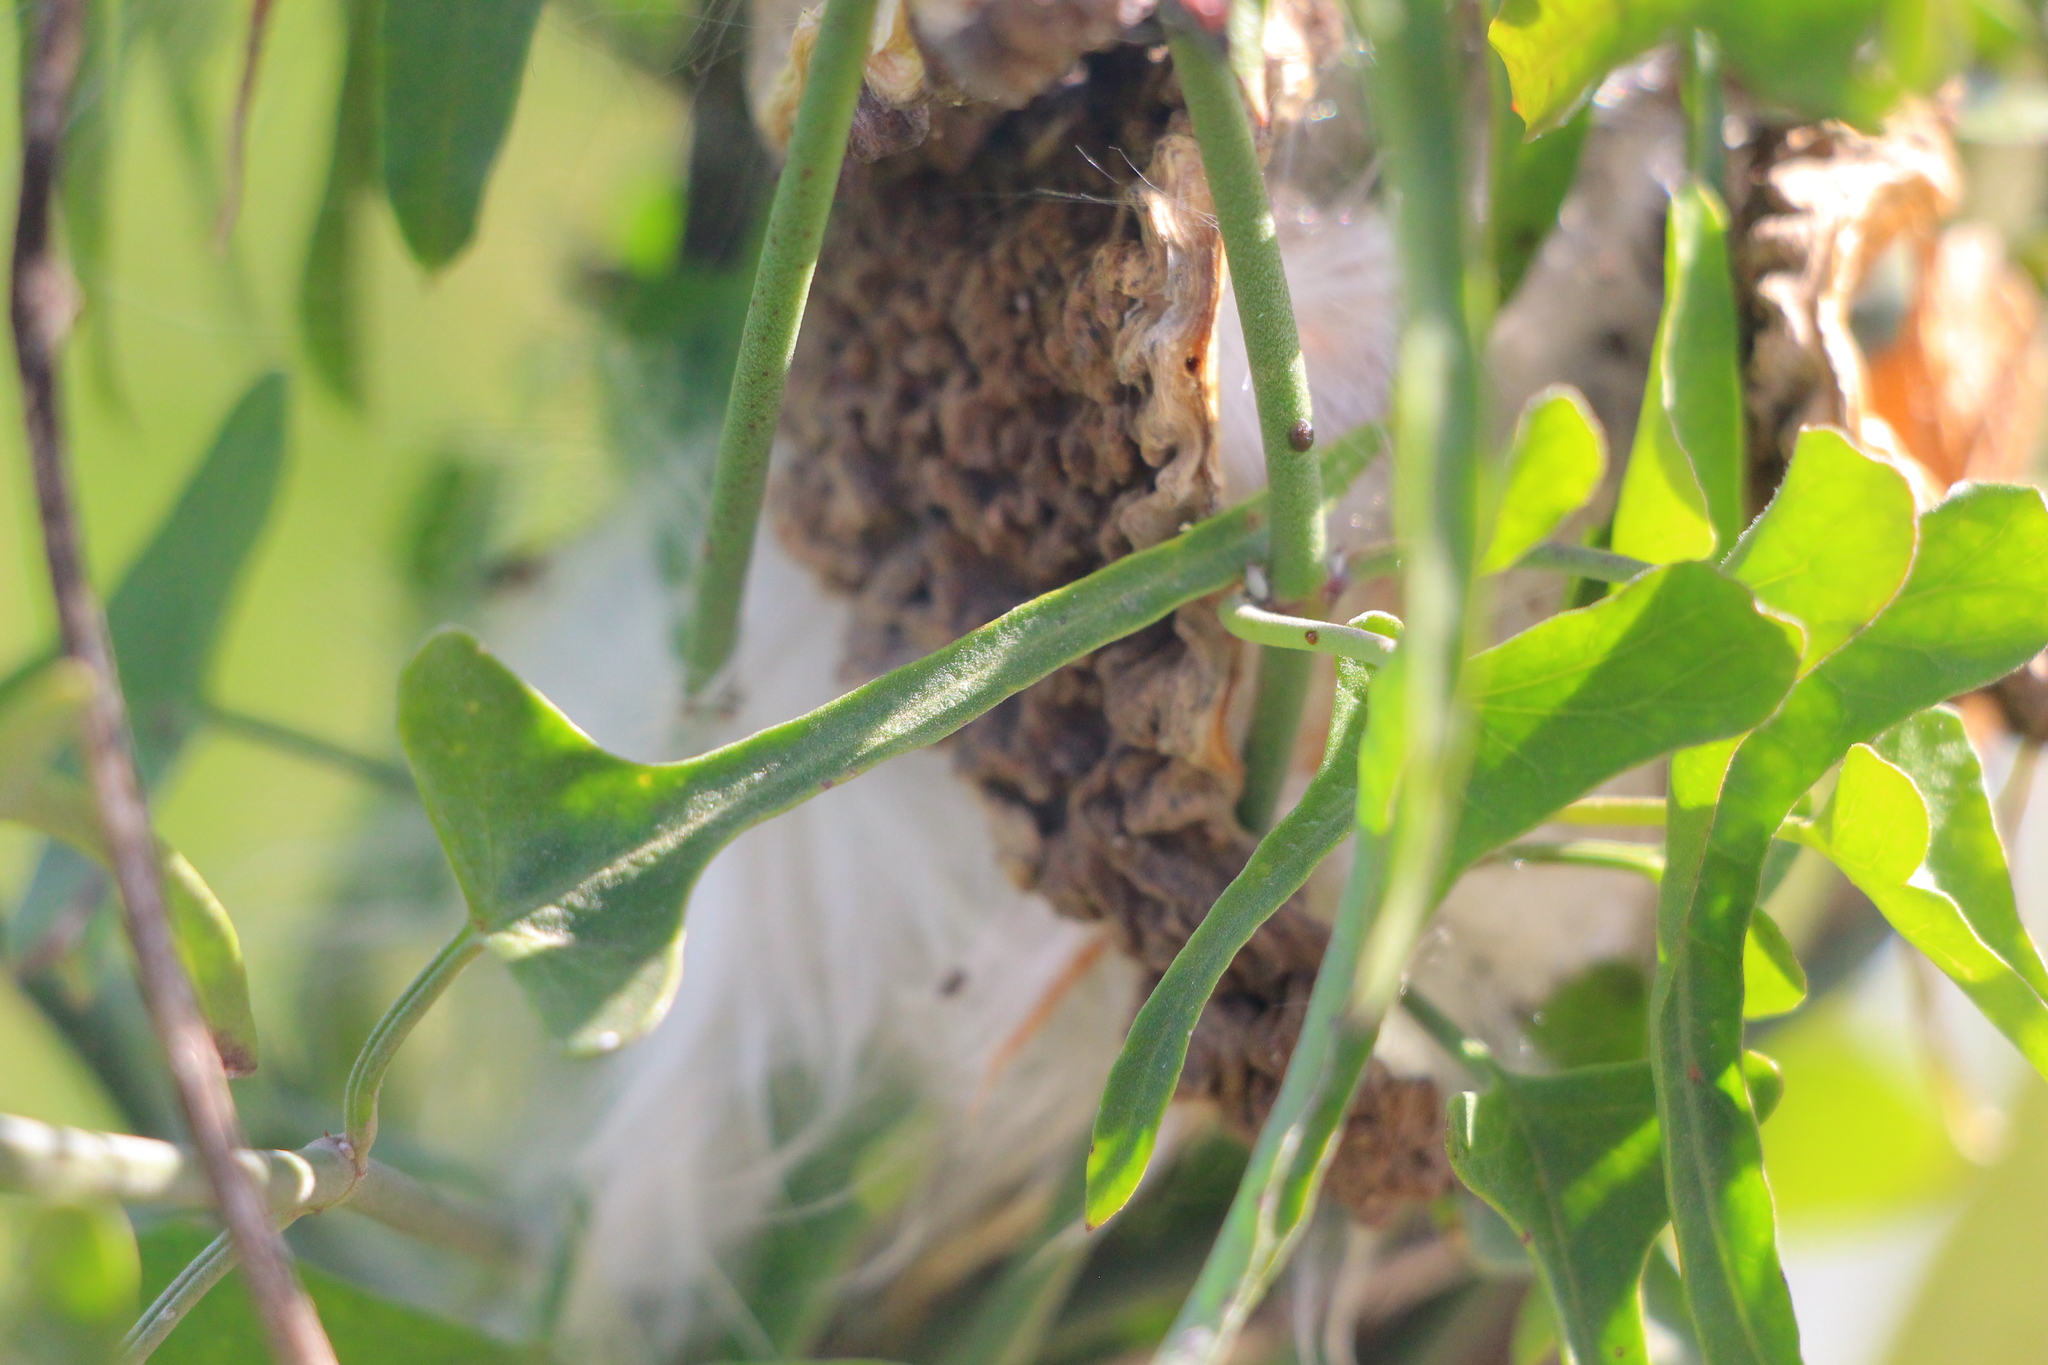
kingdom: Plantae
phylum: Tracheophyta
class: Magnoliopsida
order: Gentianales
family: Apocynaceae
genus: Araujia
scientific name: Araujia brachystephana
